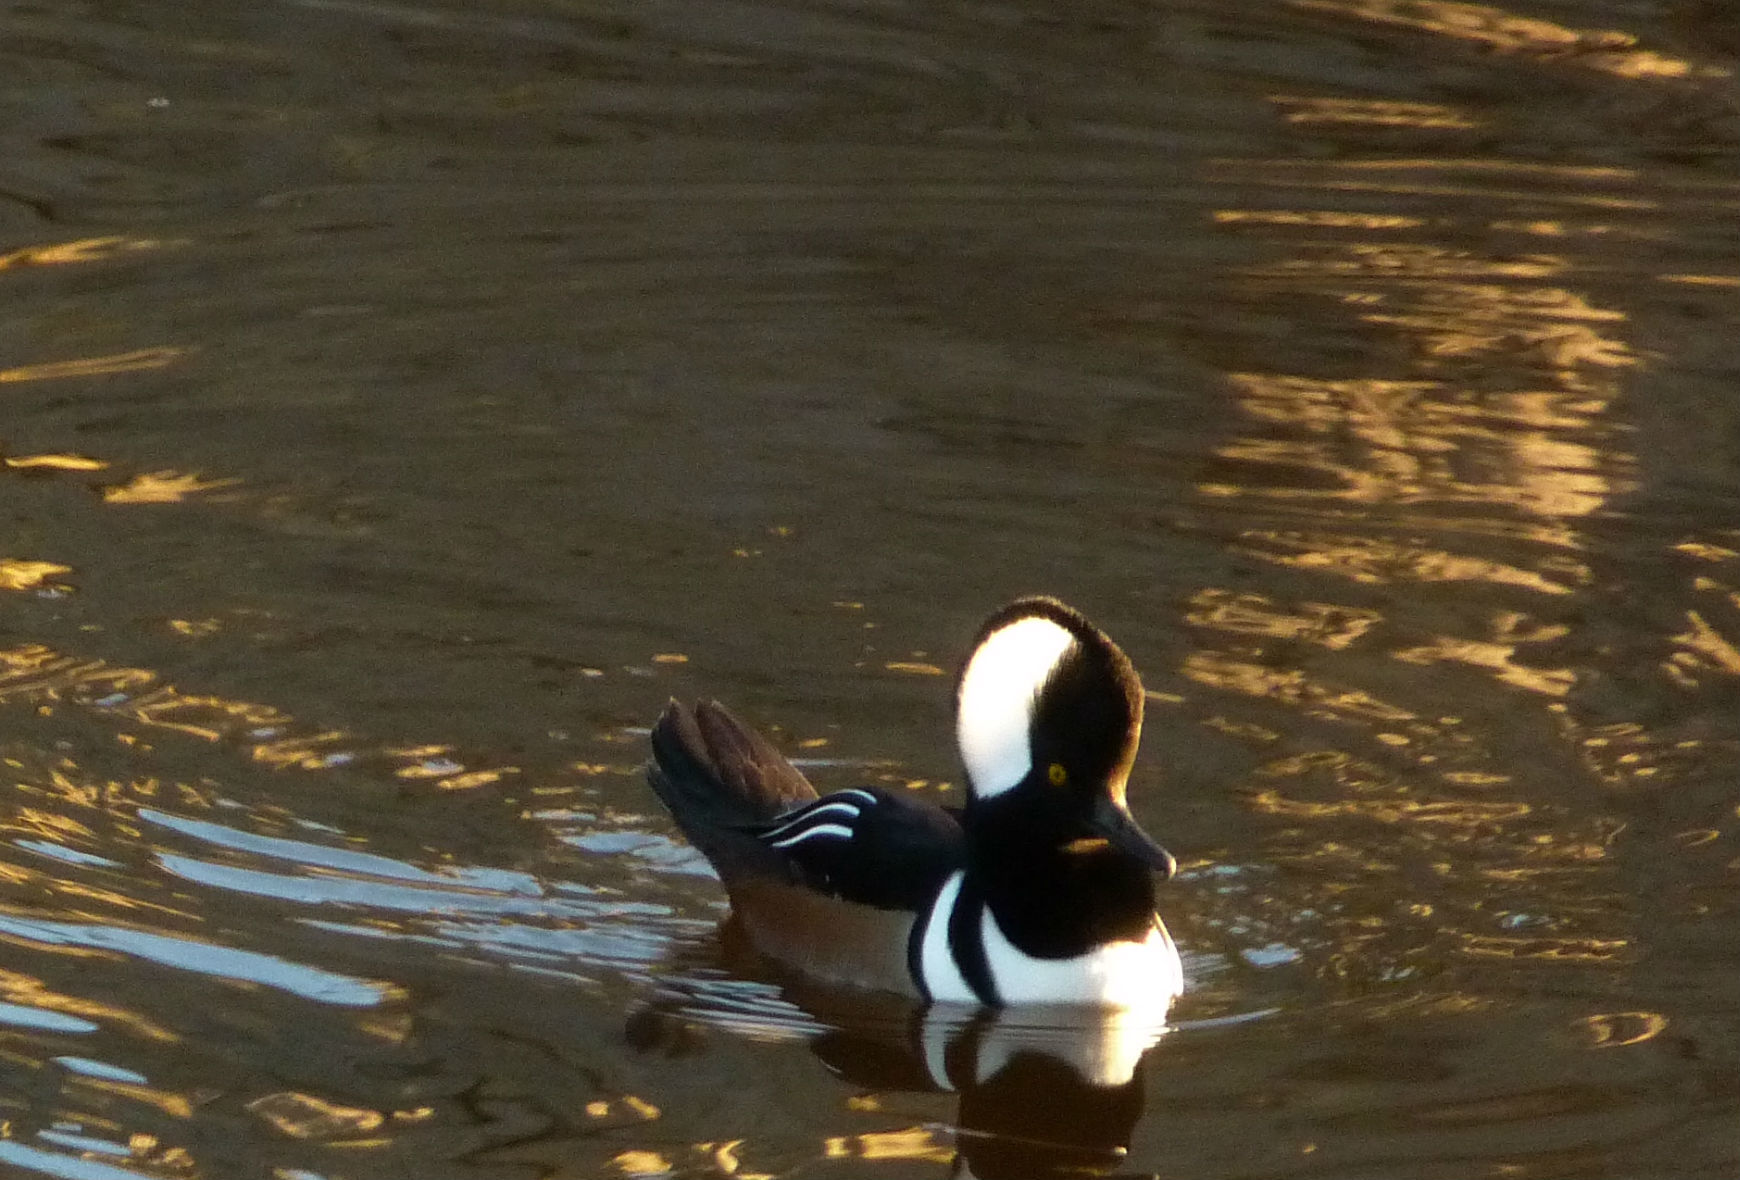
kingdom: Animalia
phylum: Chordata
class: Aves
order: Anseriformes
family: Anatidae
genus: Lophodytes
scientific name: Lophodytes cucullatus
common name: Hooded merganser
